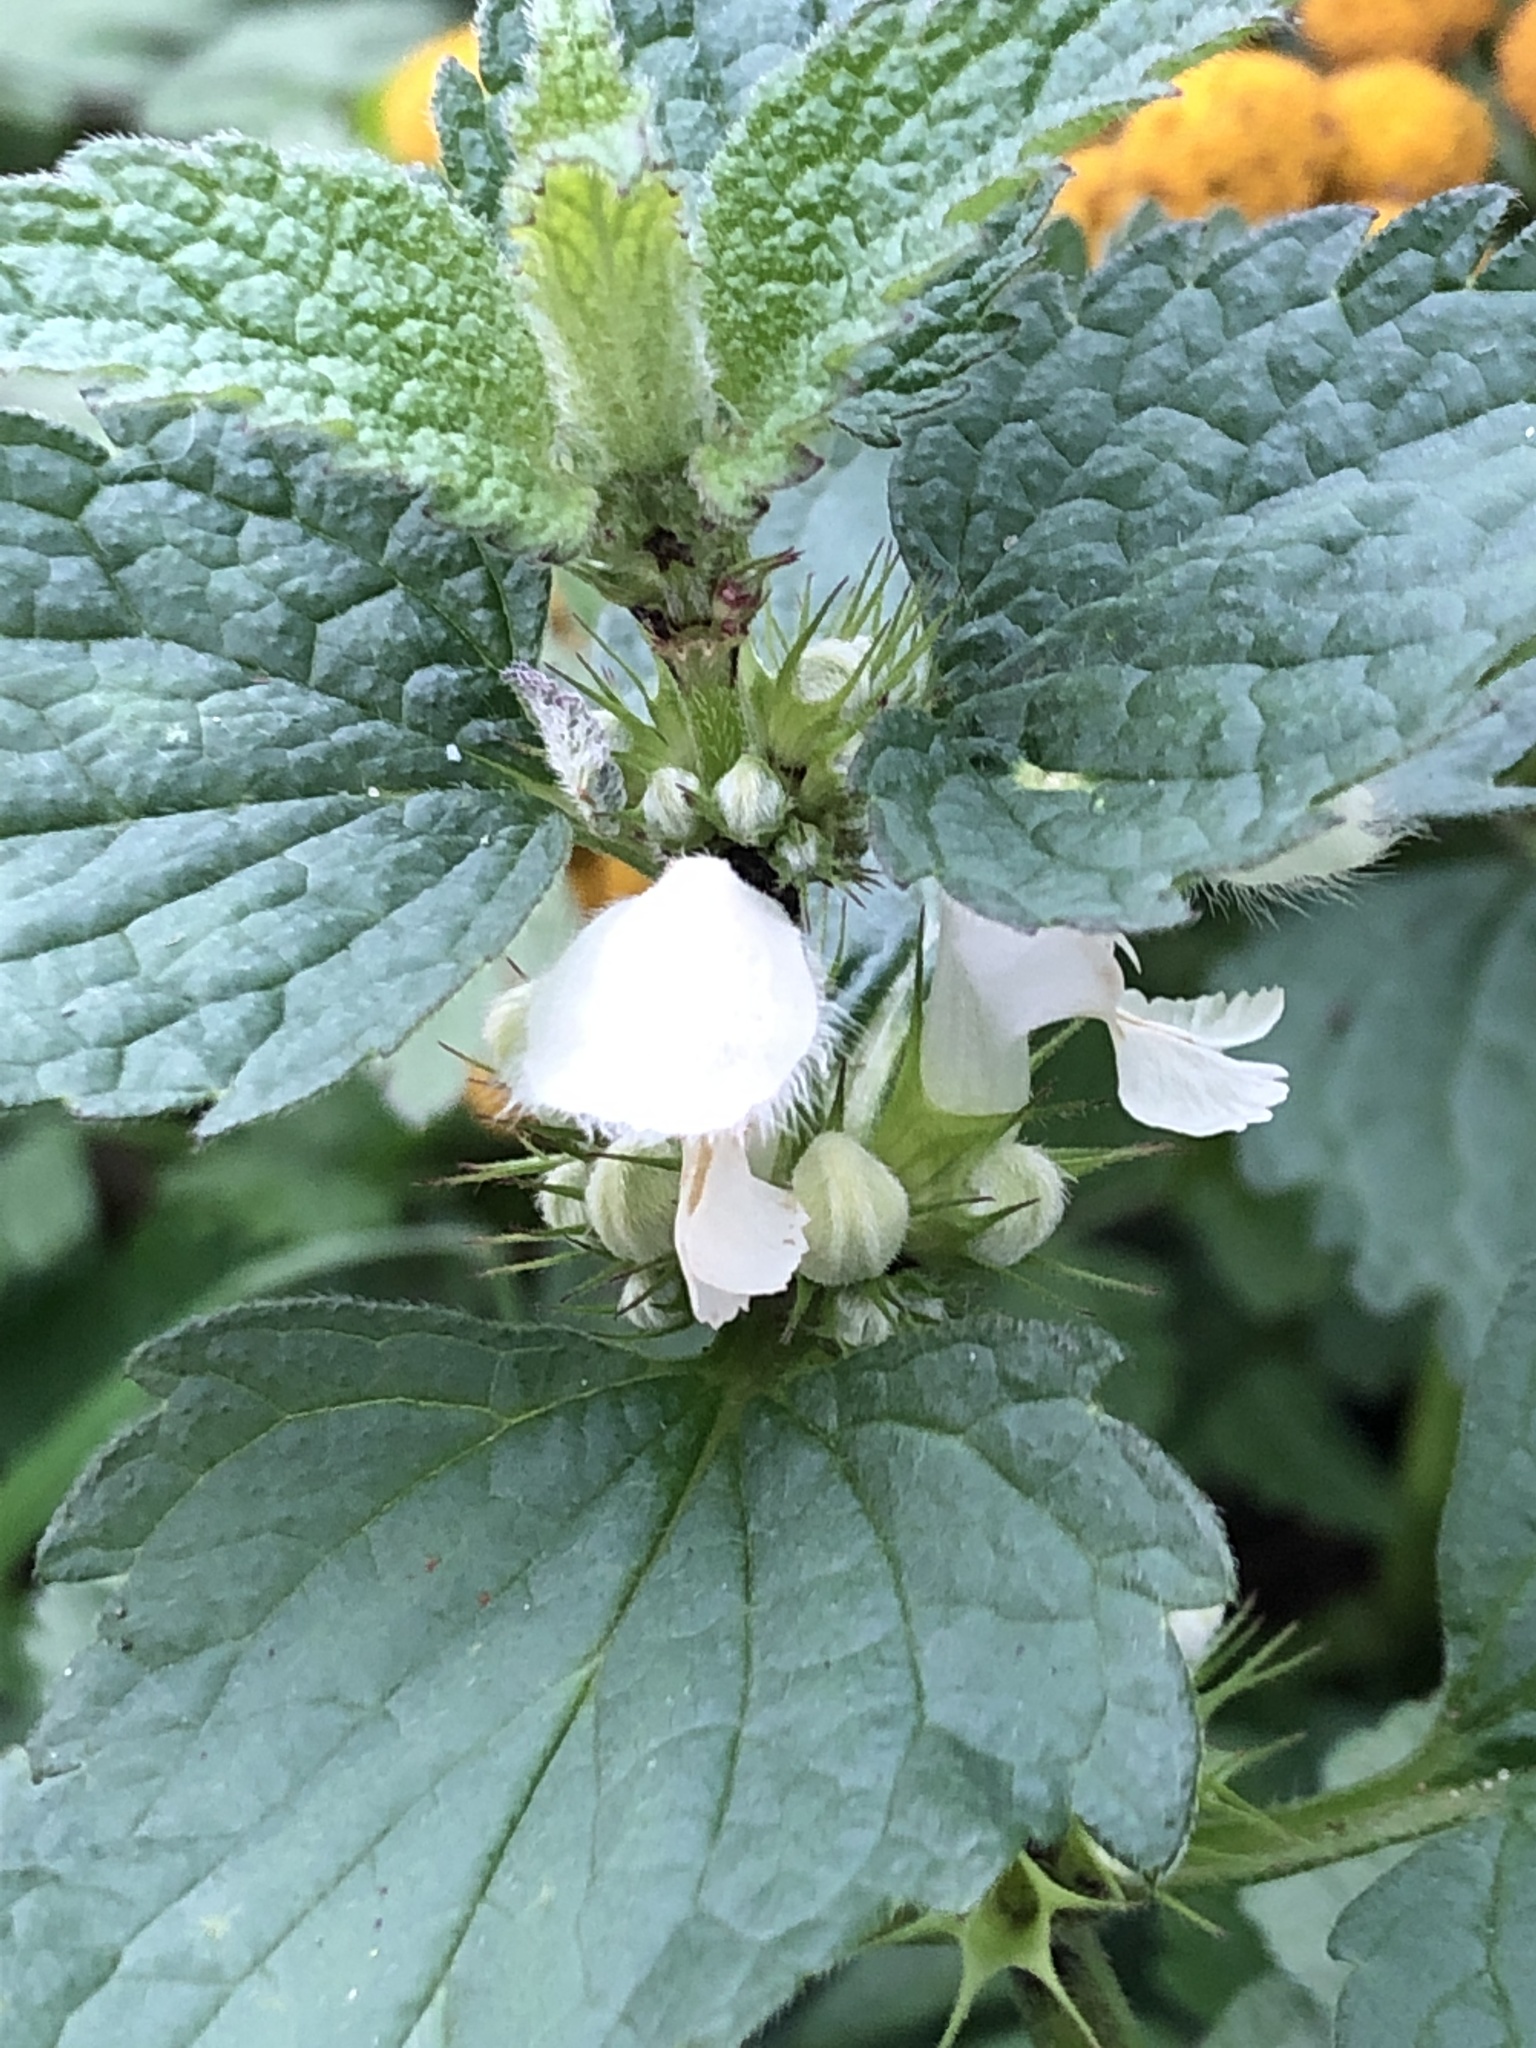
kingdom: Plantae
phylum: Tracheophyta
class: Magnoliopsida
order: Lamiales
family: Lamiaceae
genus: Lamium
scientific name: Lamium album
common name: White dead-nettle
